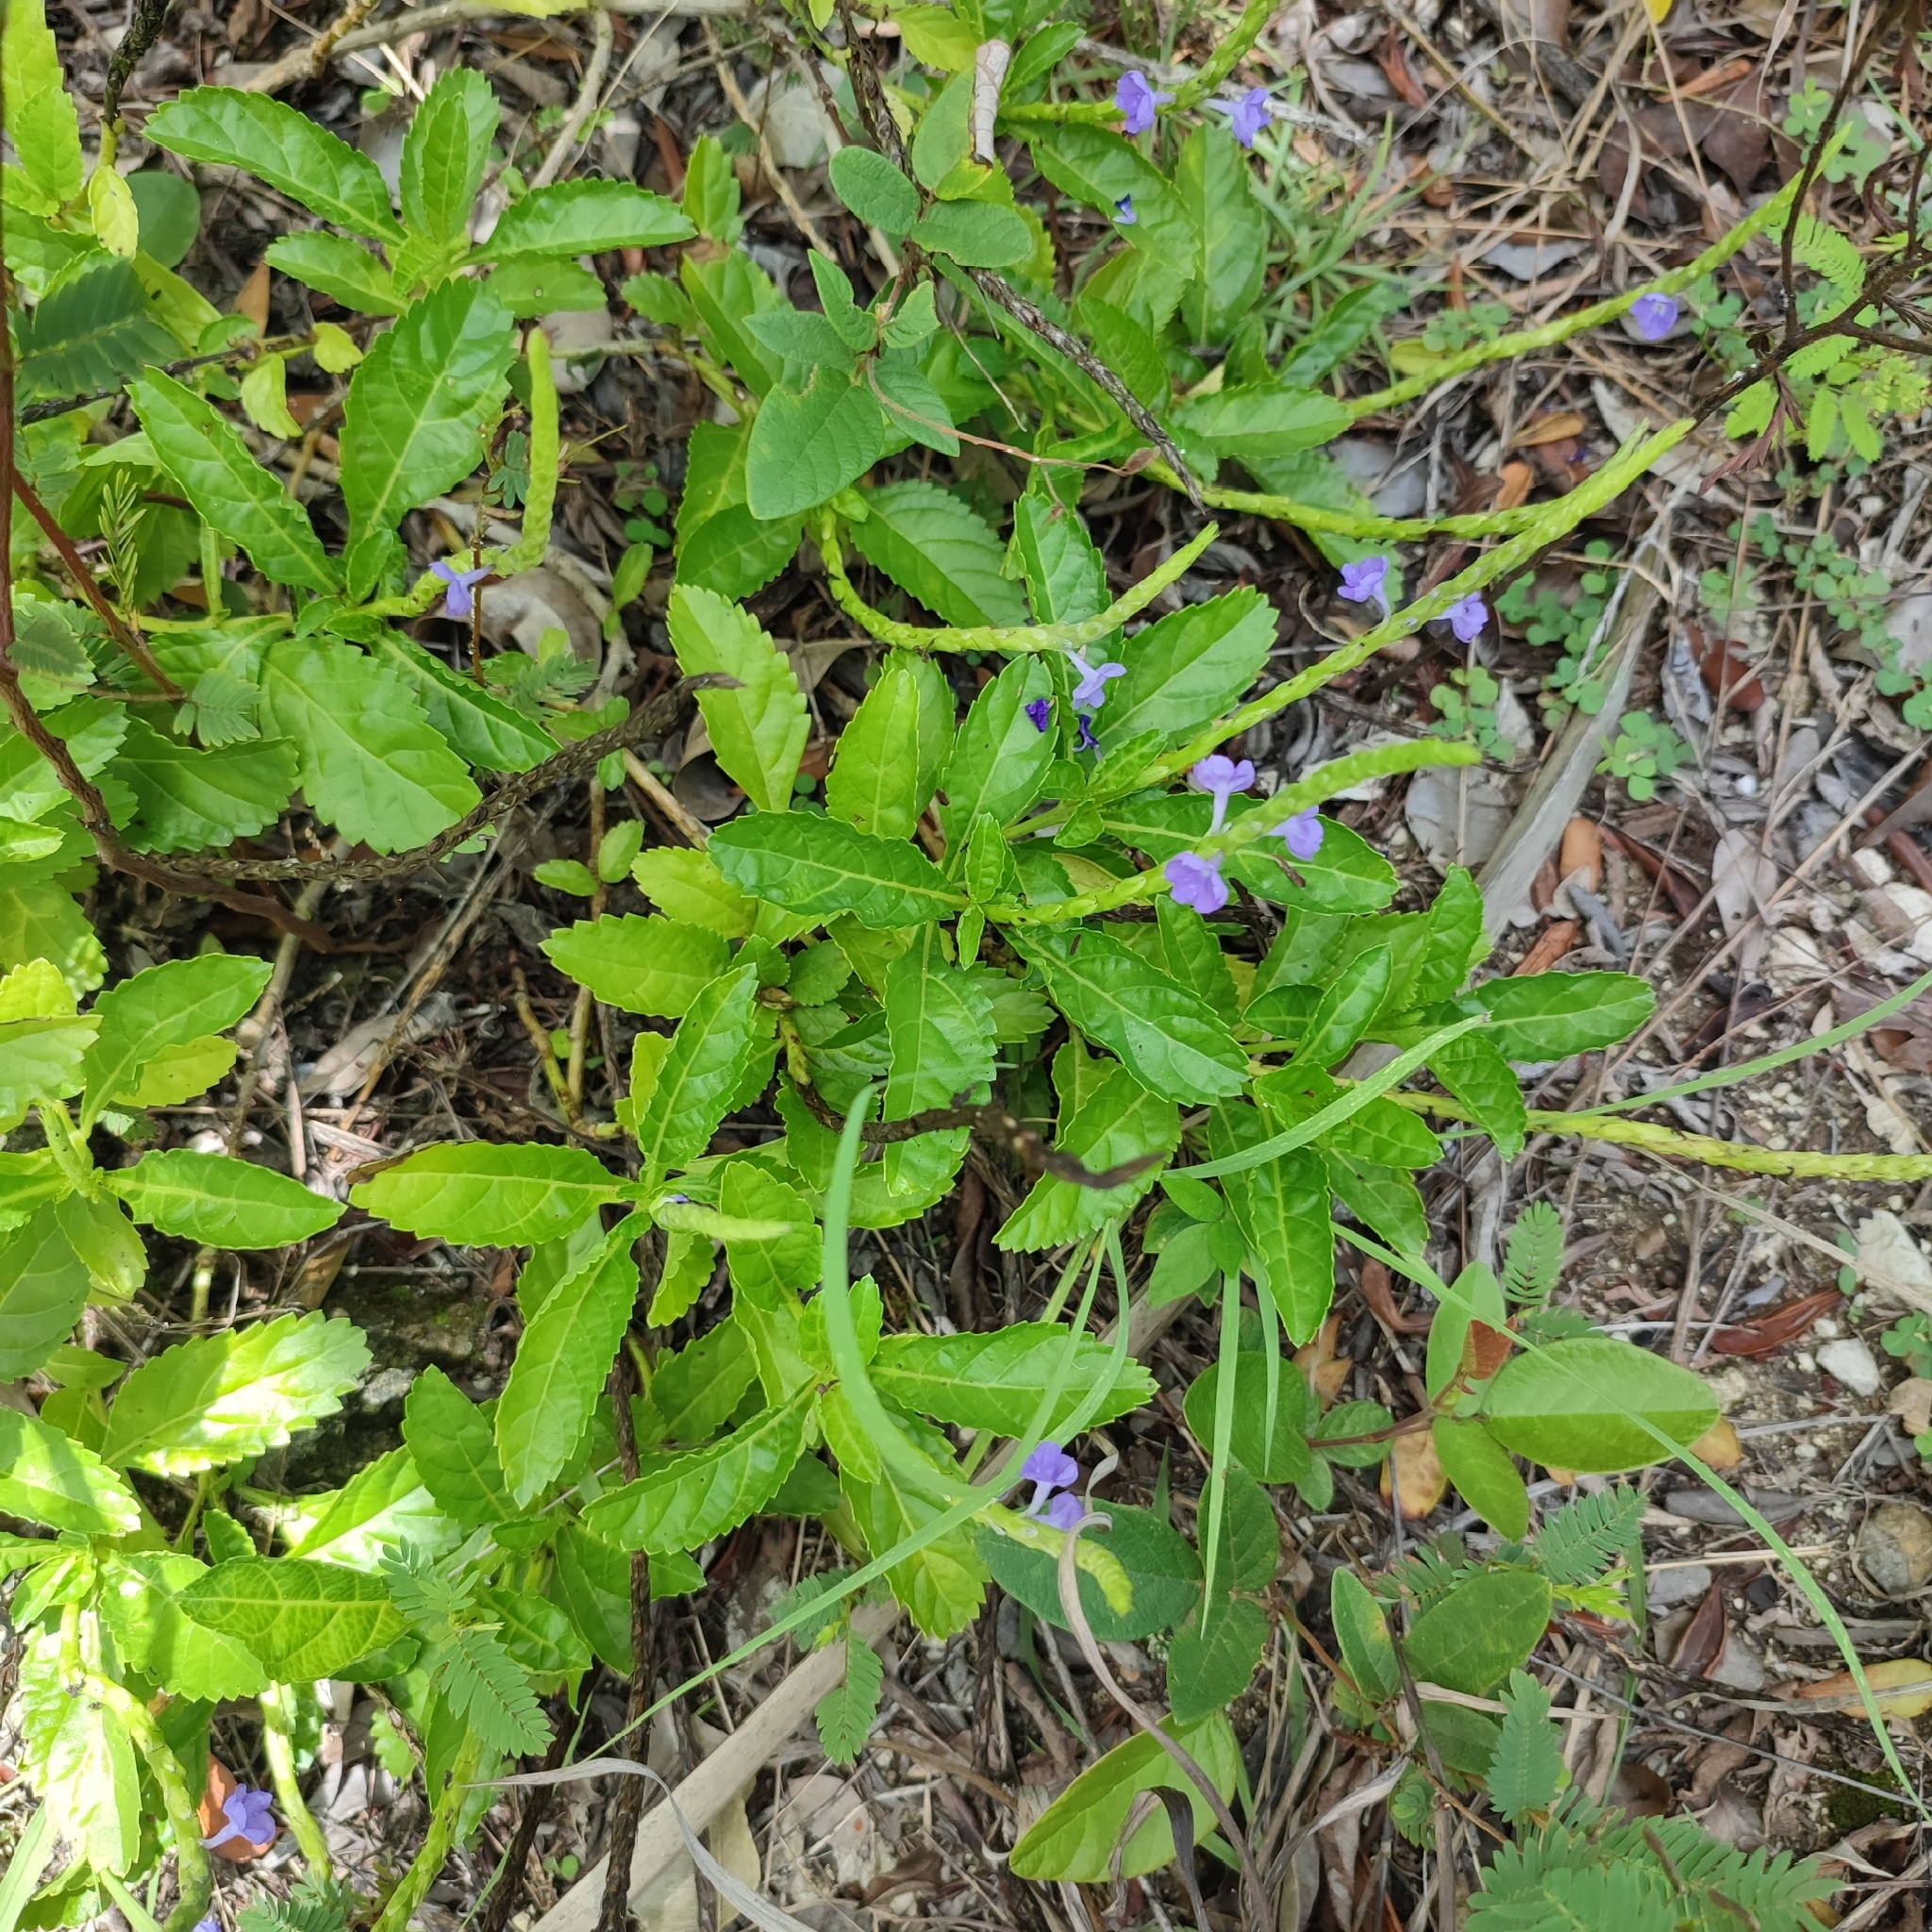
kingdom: Plantae
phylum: Tracheophyta
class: Magnoliopsida
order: Lamiales
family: Verbenaceae
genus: Stachytarpheta
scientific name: Stachytarpheta jamaicensis
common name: Light-blue snakeweed
